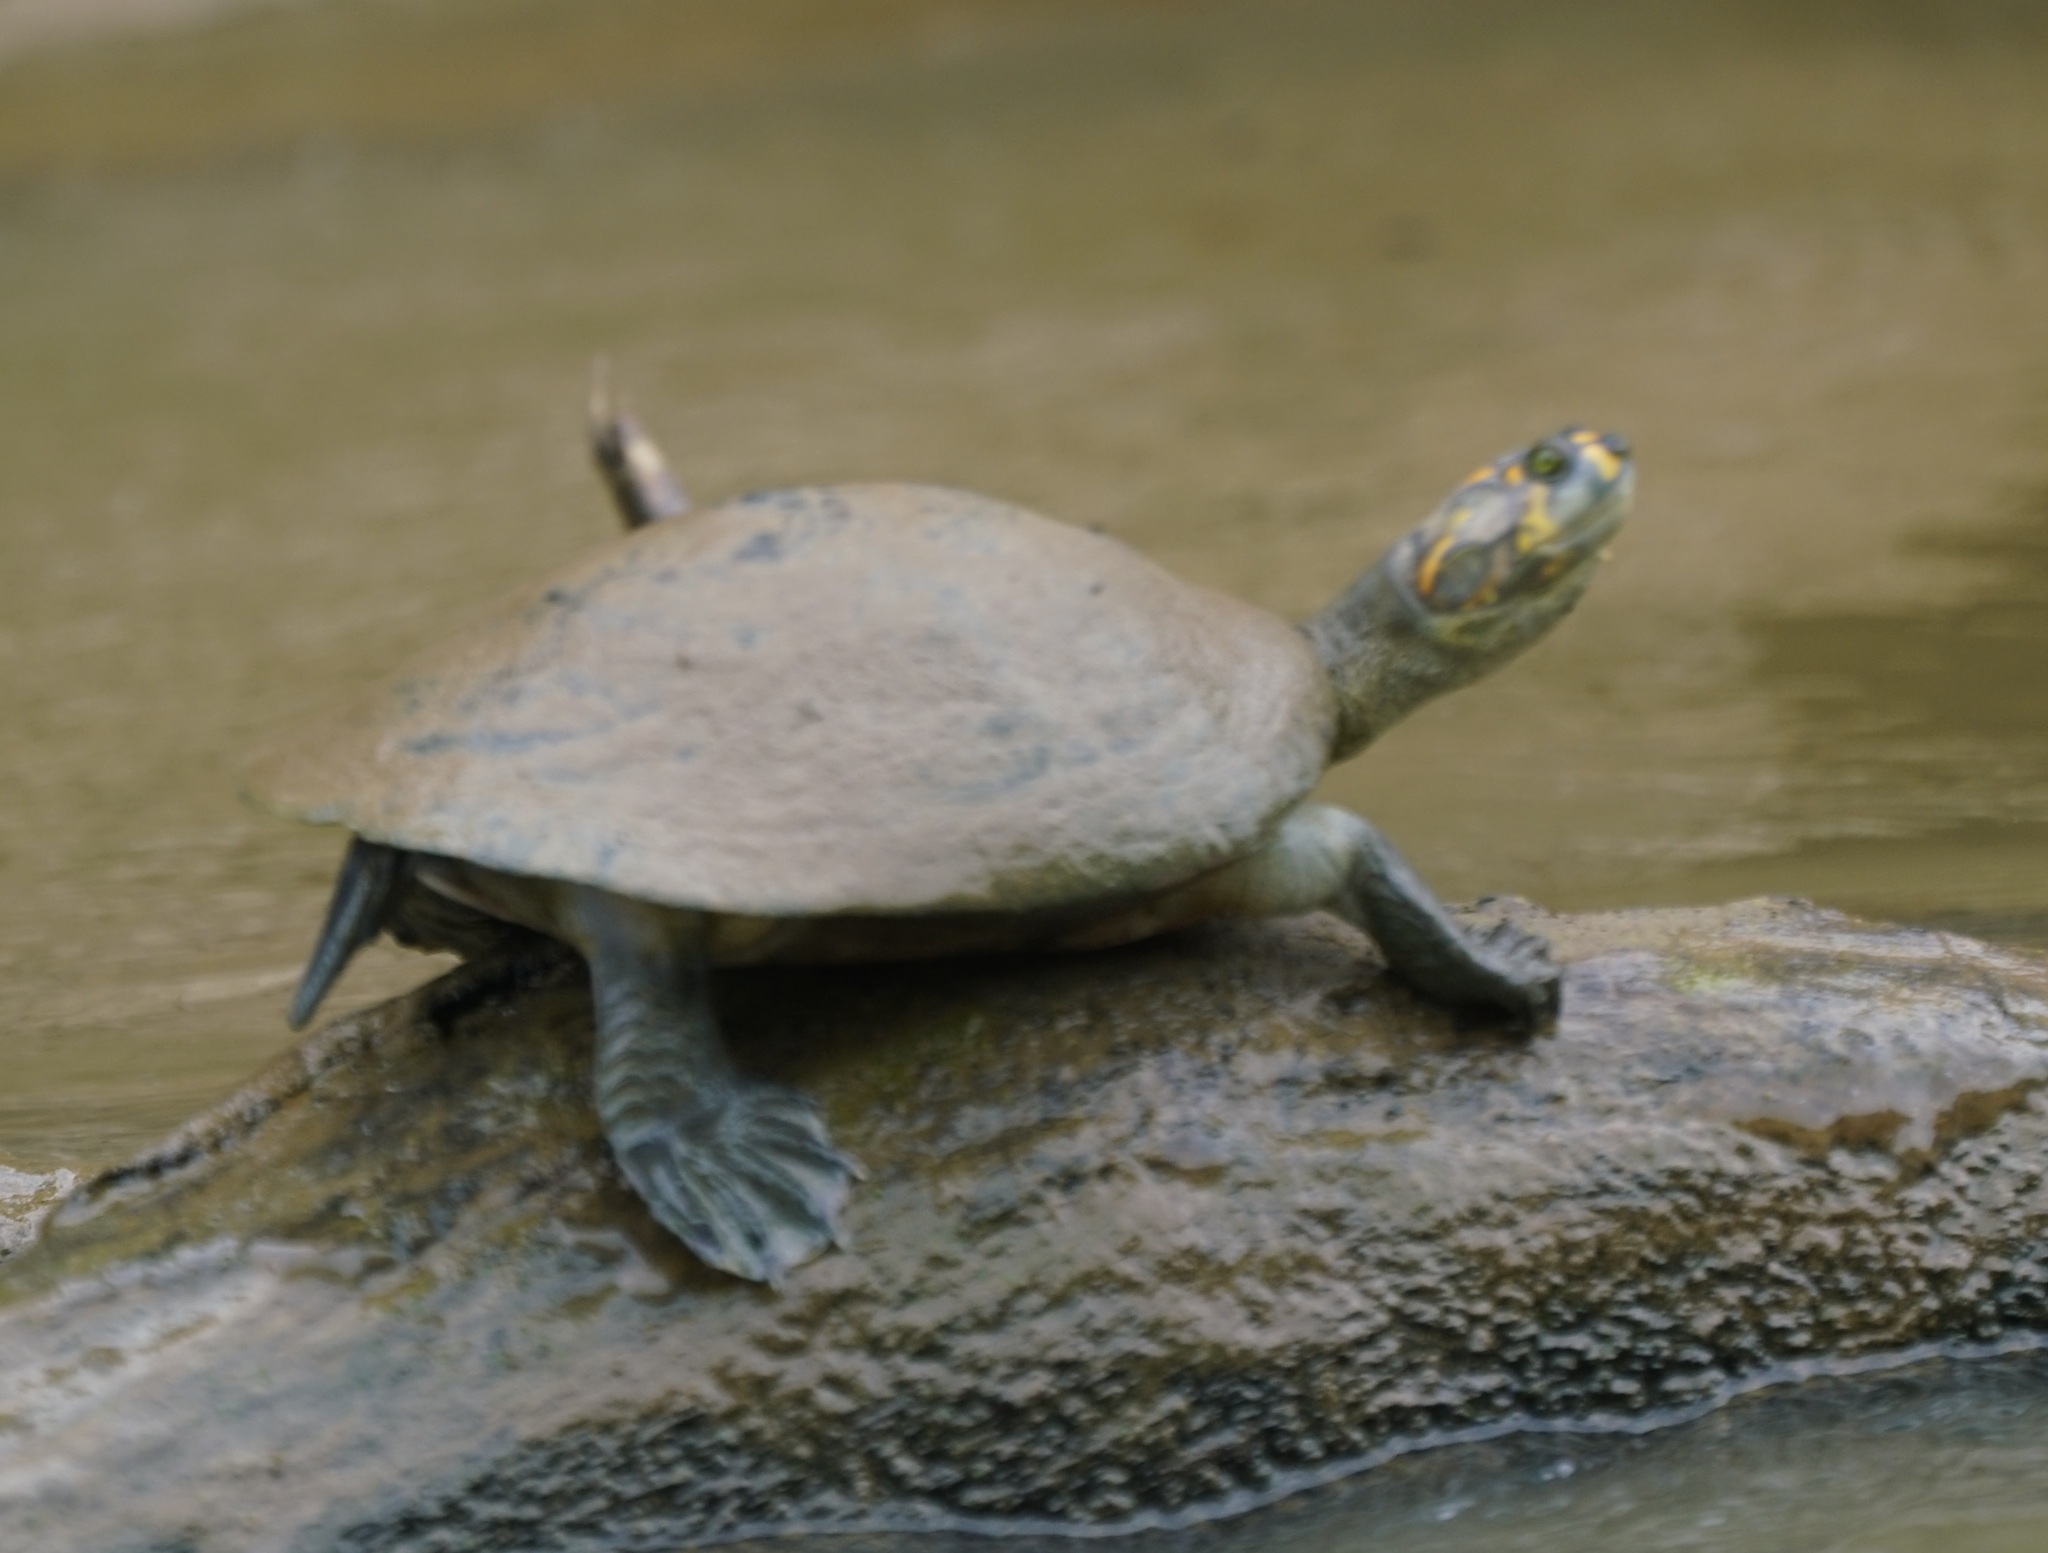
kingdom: Animalia
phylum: Chordata
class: Testudines
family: Podocnemididae
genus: Podocnemis
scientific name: Podocnemis unifilis
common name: Yellow-spotted amazon river turtle
